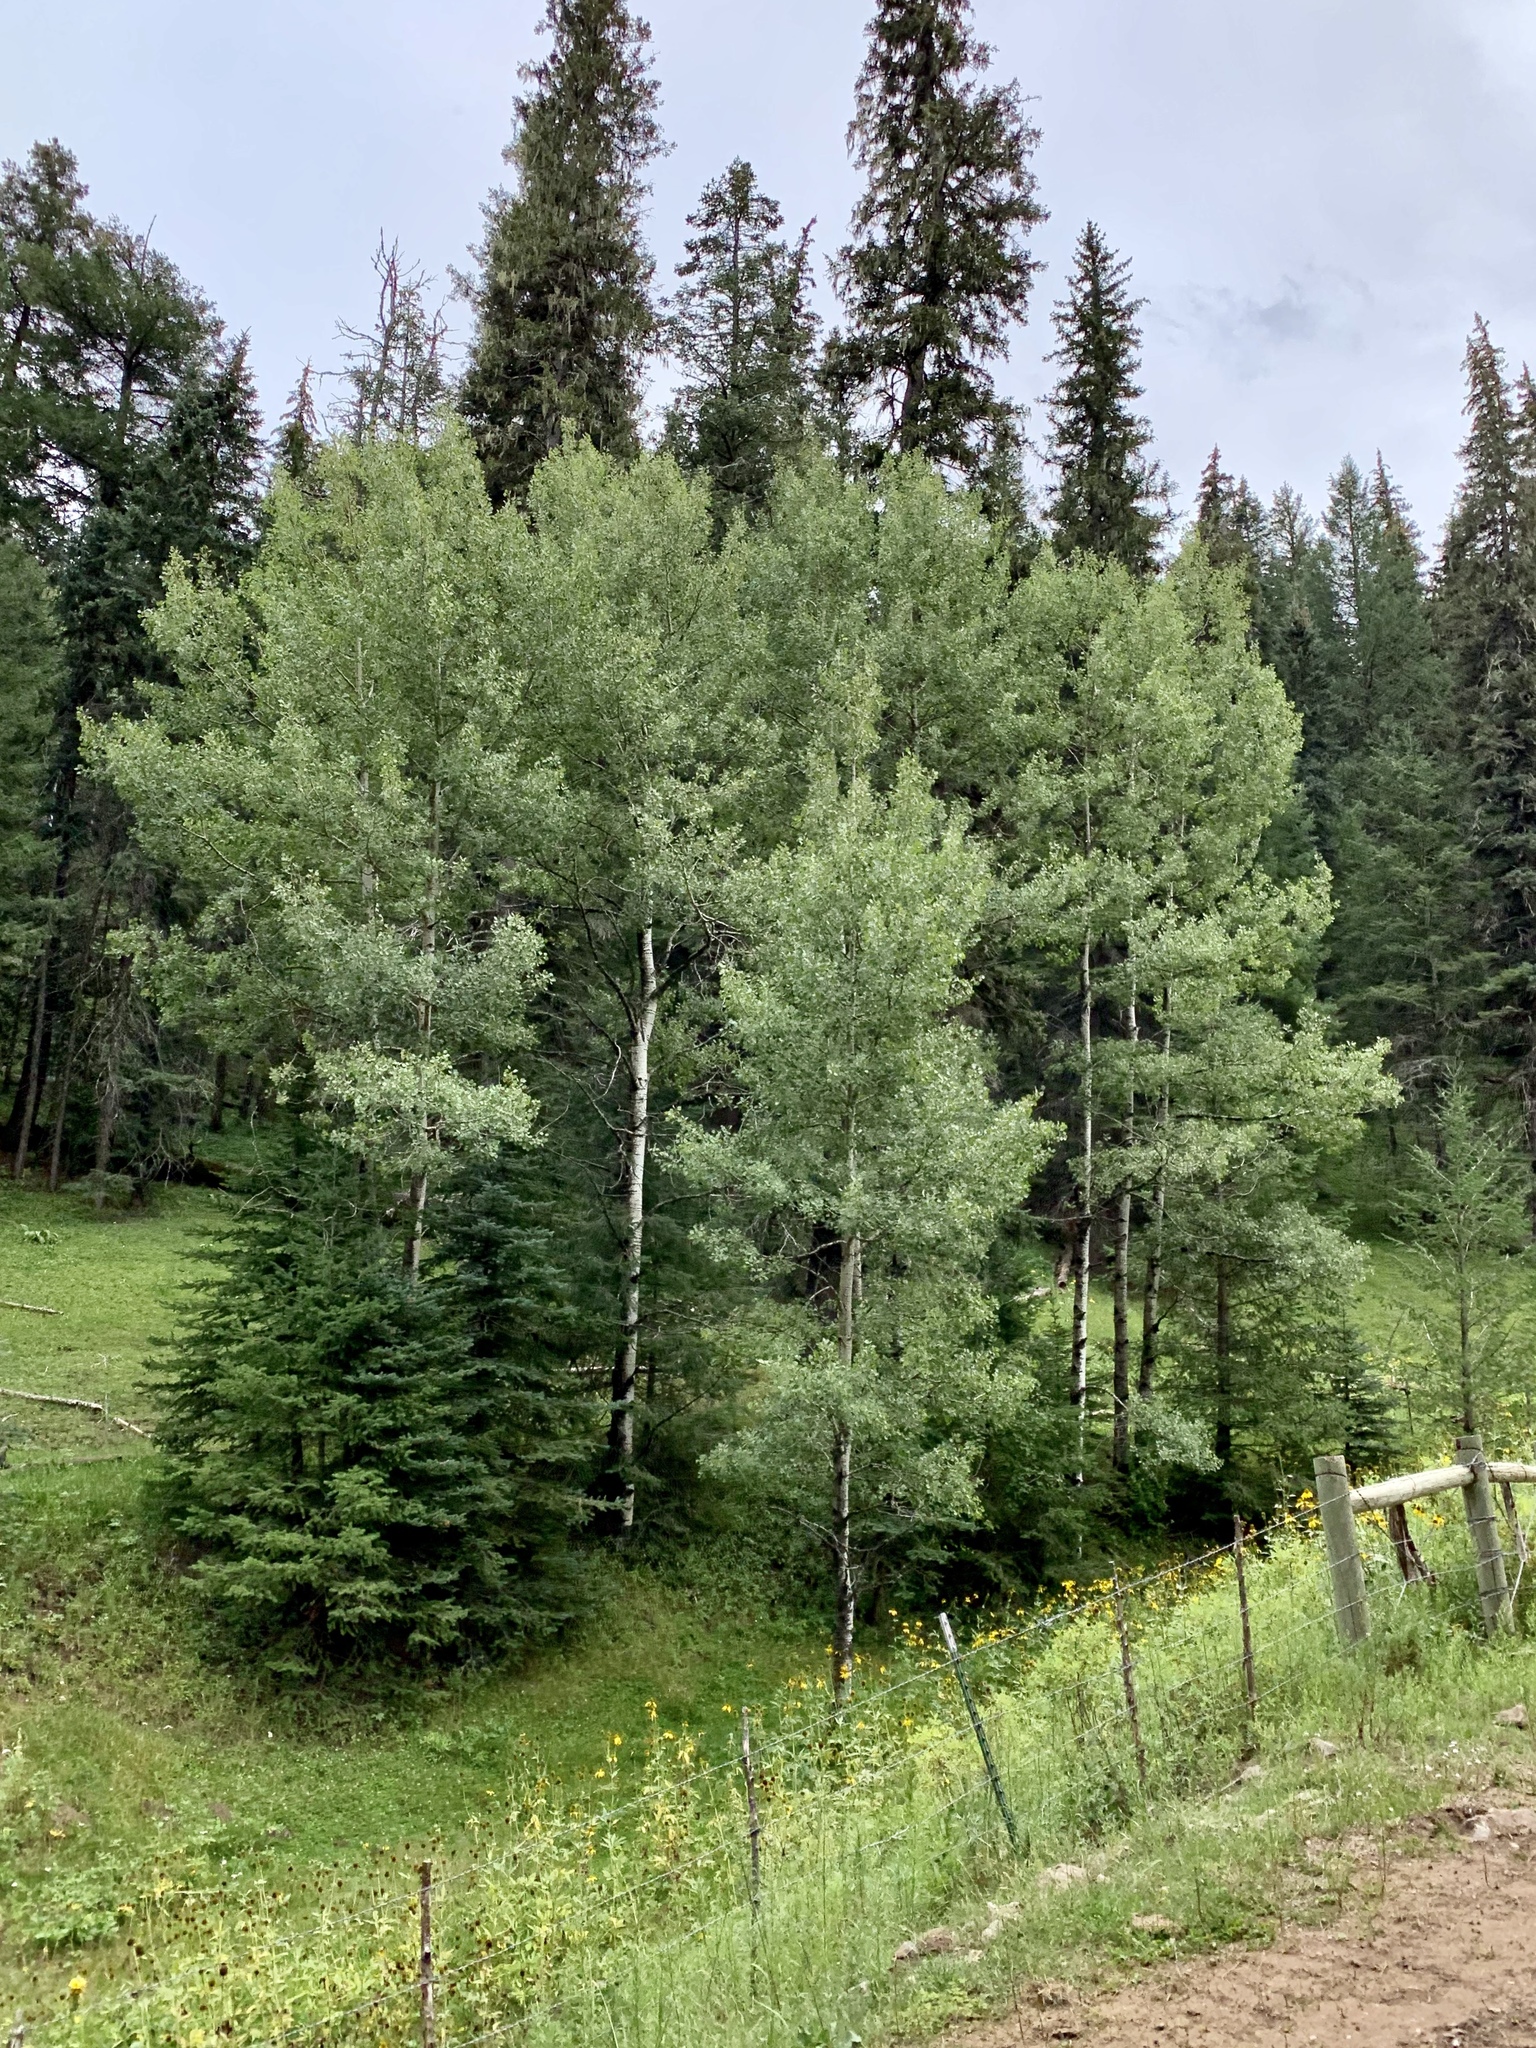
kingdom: Plantae
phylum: Tracheophyta
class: Magnoliopsida
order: Malpighiales
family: Salicaceae
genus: Populus
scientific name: Populus tremuloides
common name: Quaking aspen
